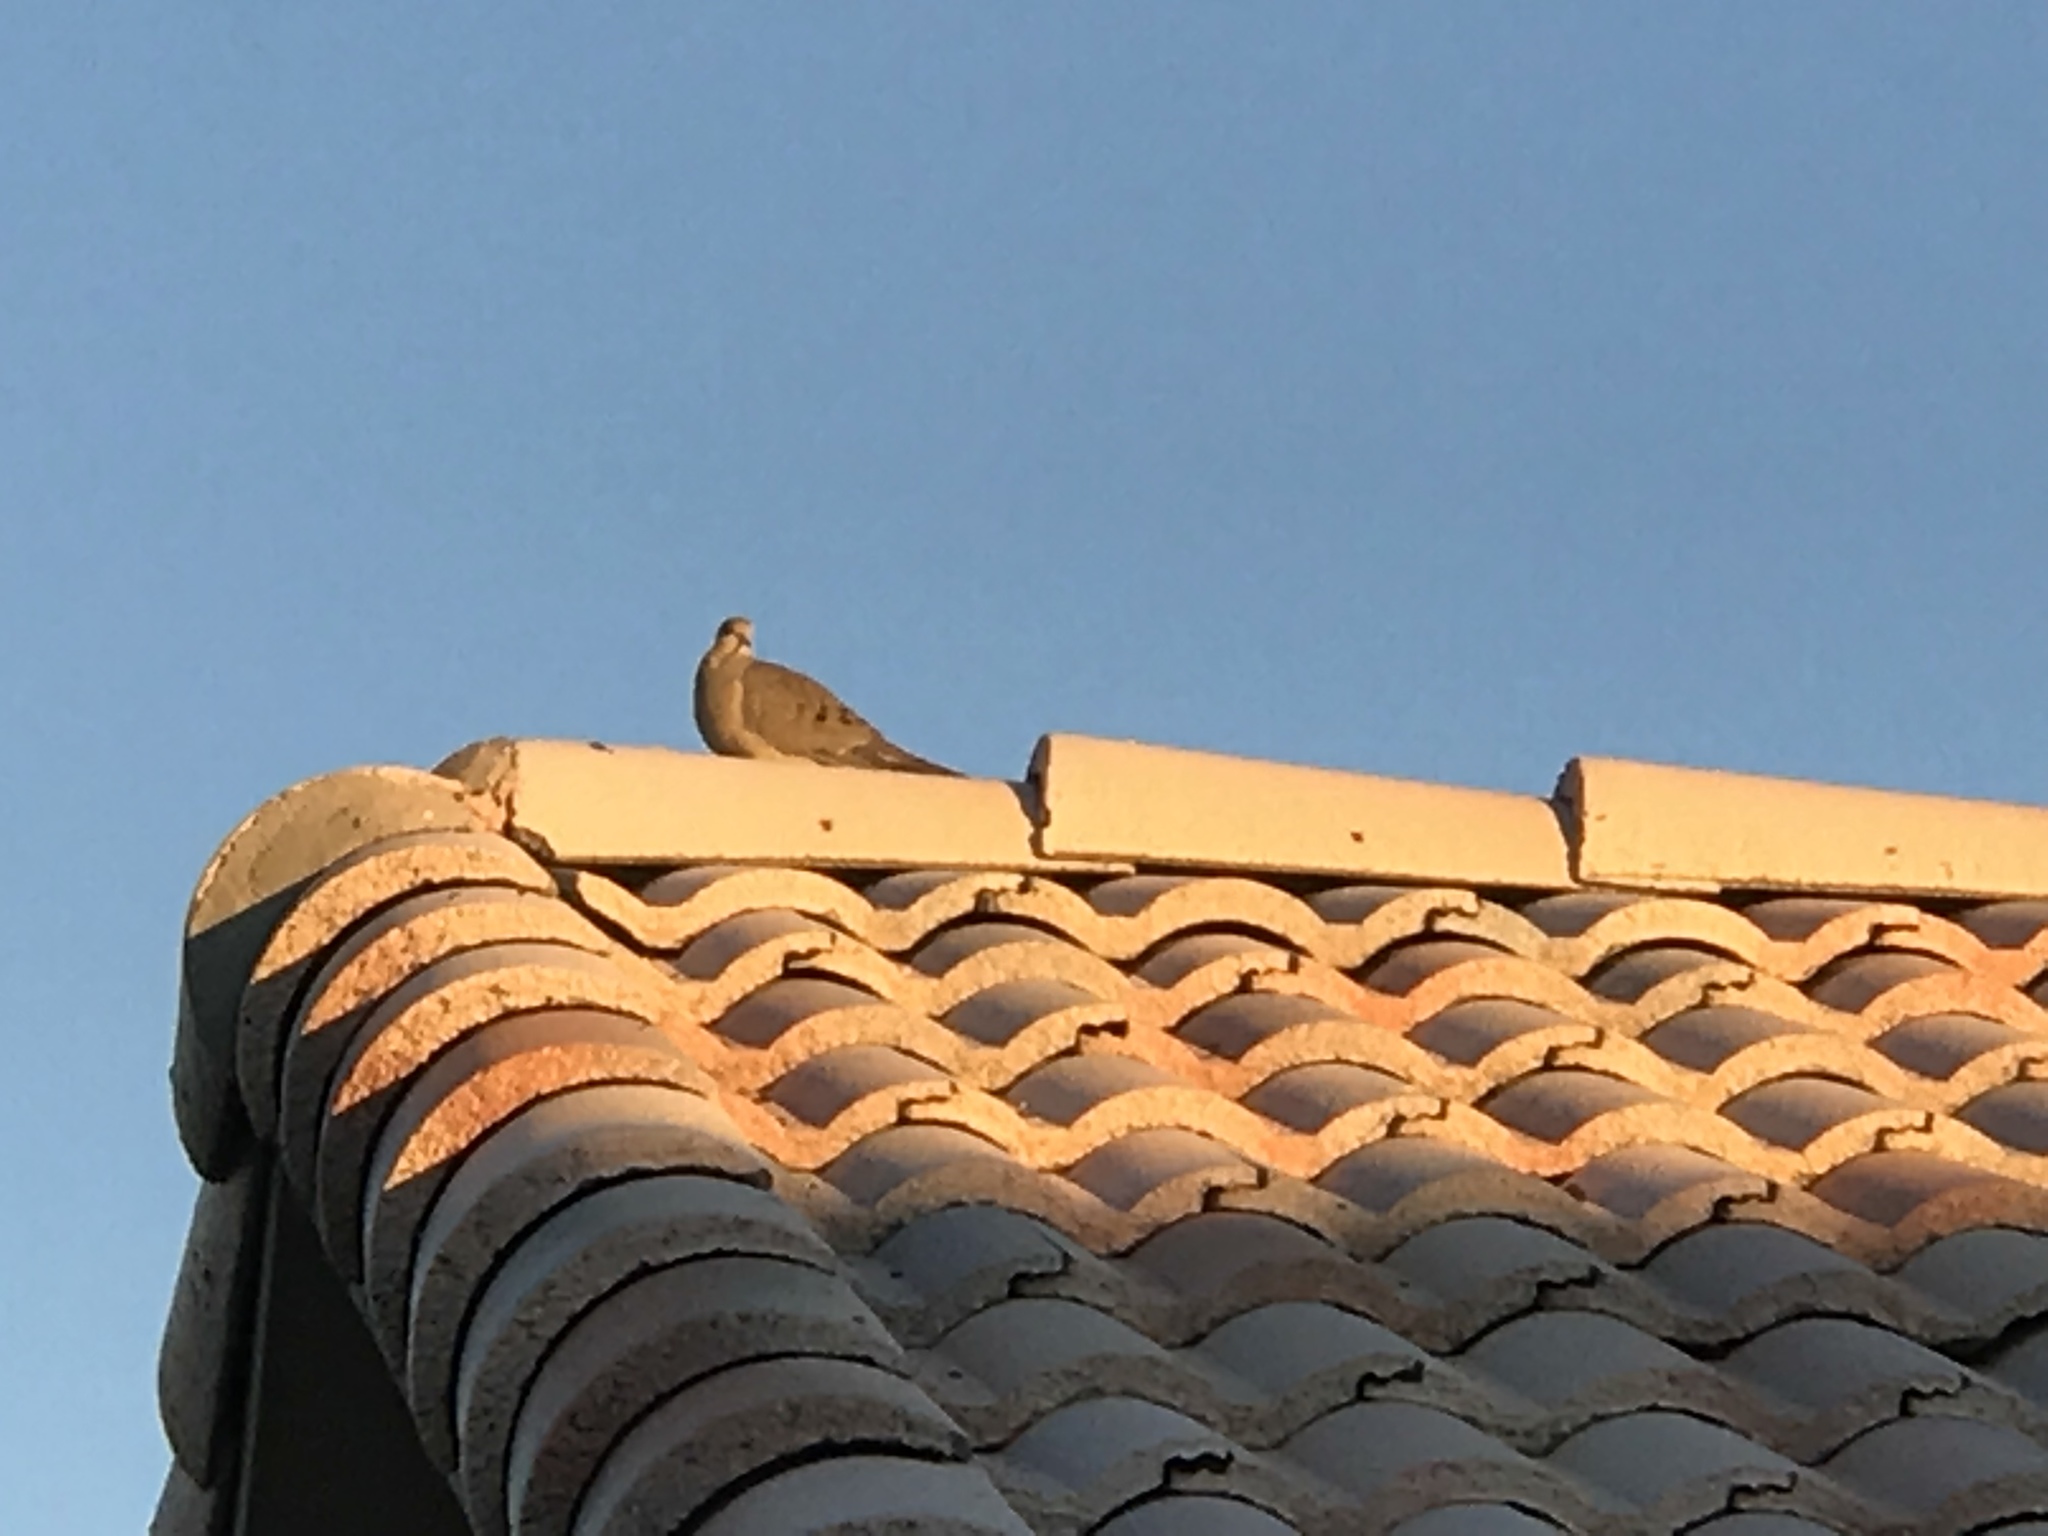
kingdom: Animalia
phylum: Chordata
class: Aves
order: Columbiformes
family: Columbidae
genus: Zenaida
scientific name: Zenaida macroura
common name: Mourning dove
